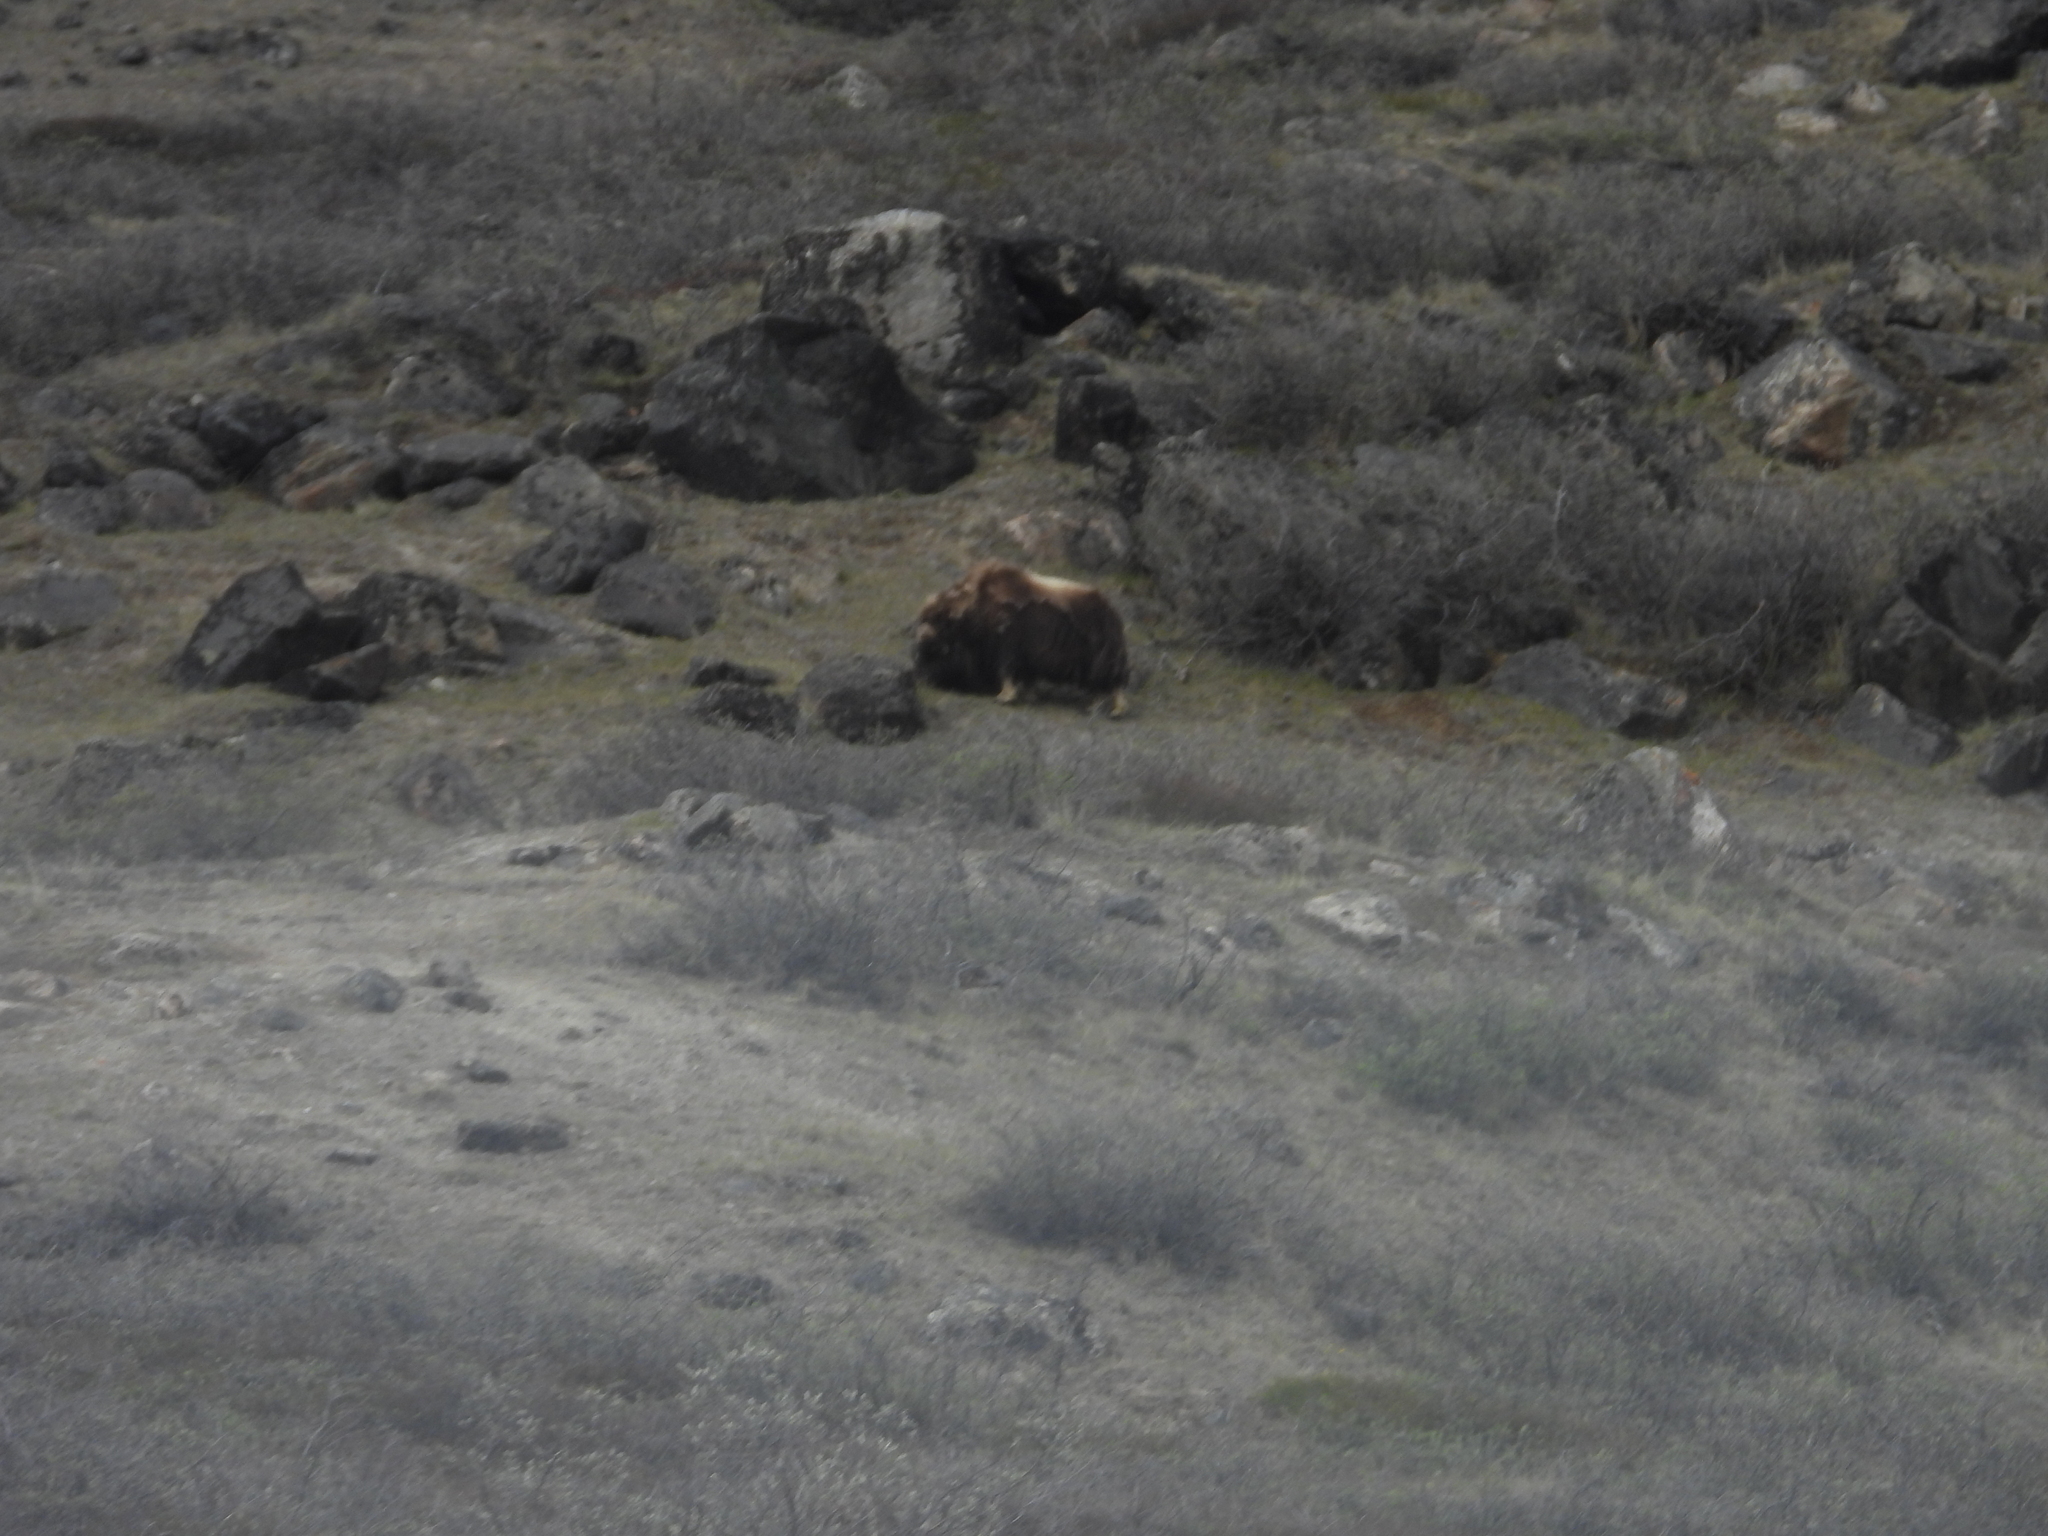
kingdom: Animalia
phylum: Chordata
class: Mammalia
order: Artiodactyla
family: Bovidae
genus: Ovibos
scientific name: Ovibos moschatus
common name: Muskox
